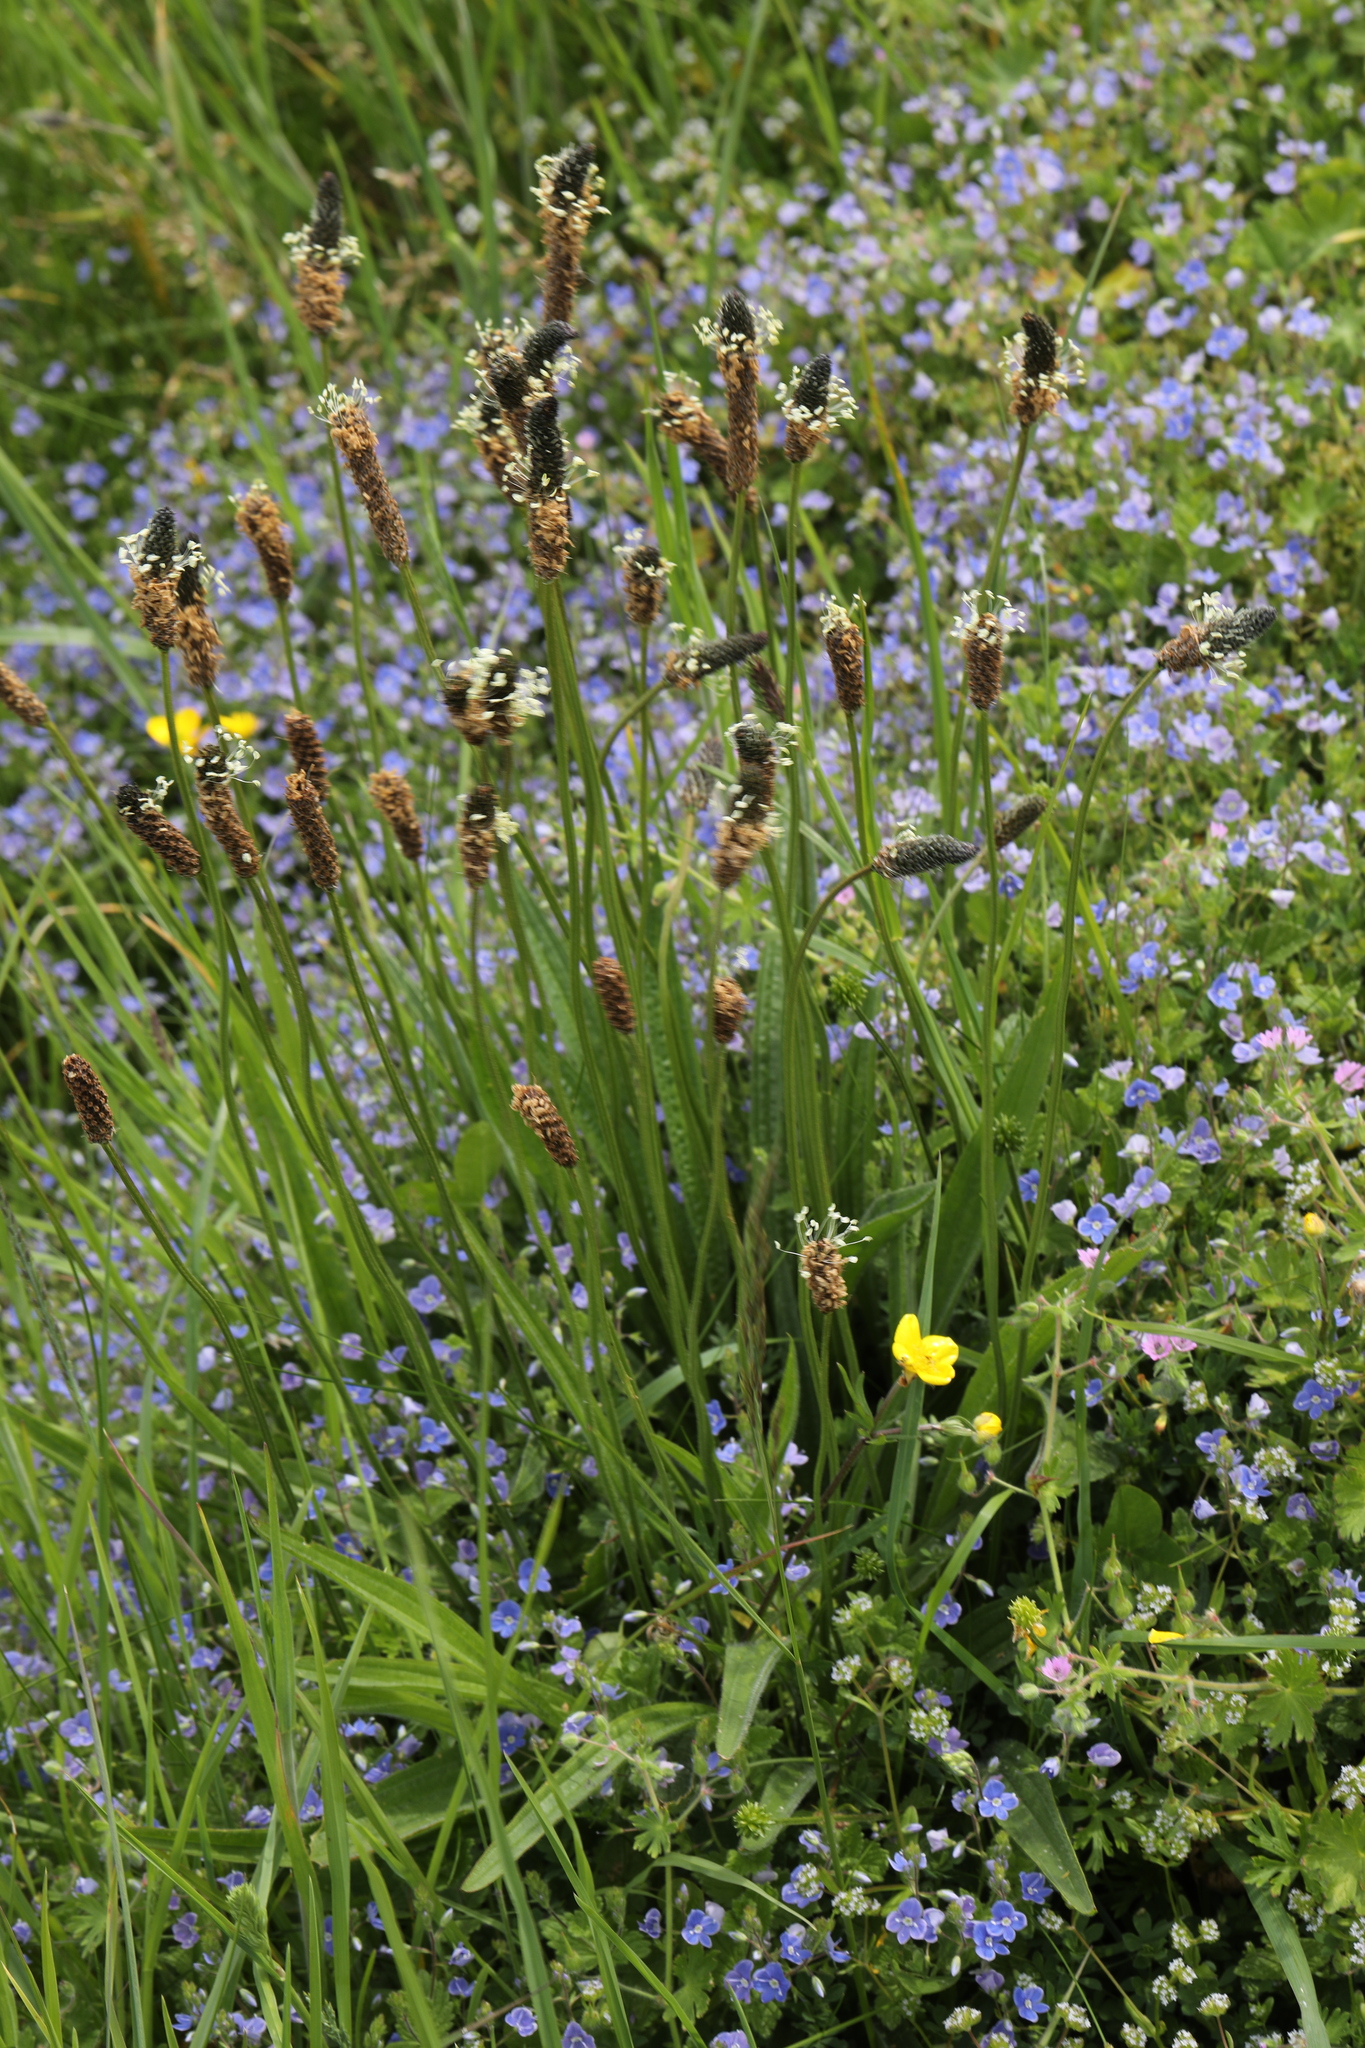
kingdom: Plantae
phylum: Tracheophyta
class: Magnoliopsida
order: Lamiales
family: Plantaginaceae
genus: Plantago
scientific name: Plantago lanceolata
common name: Ribwort plantain
